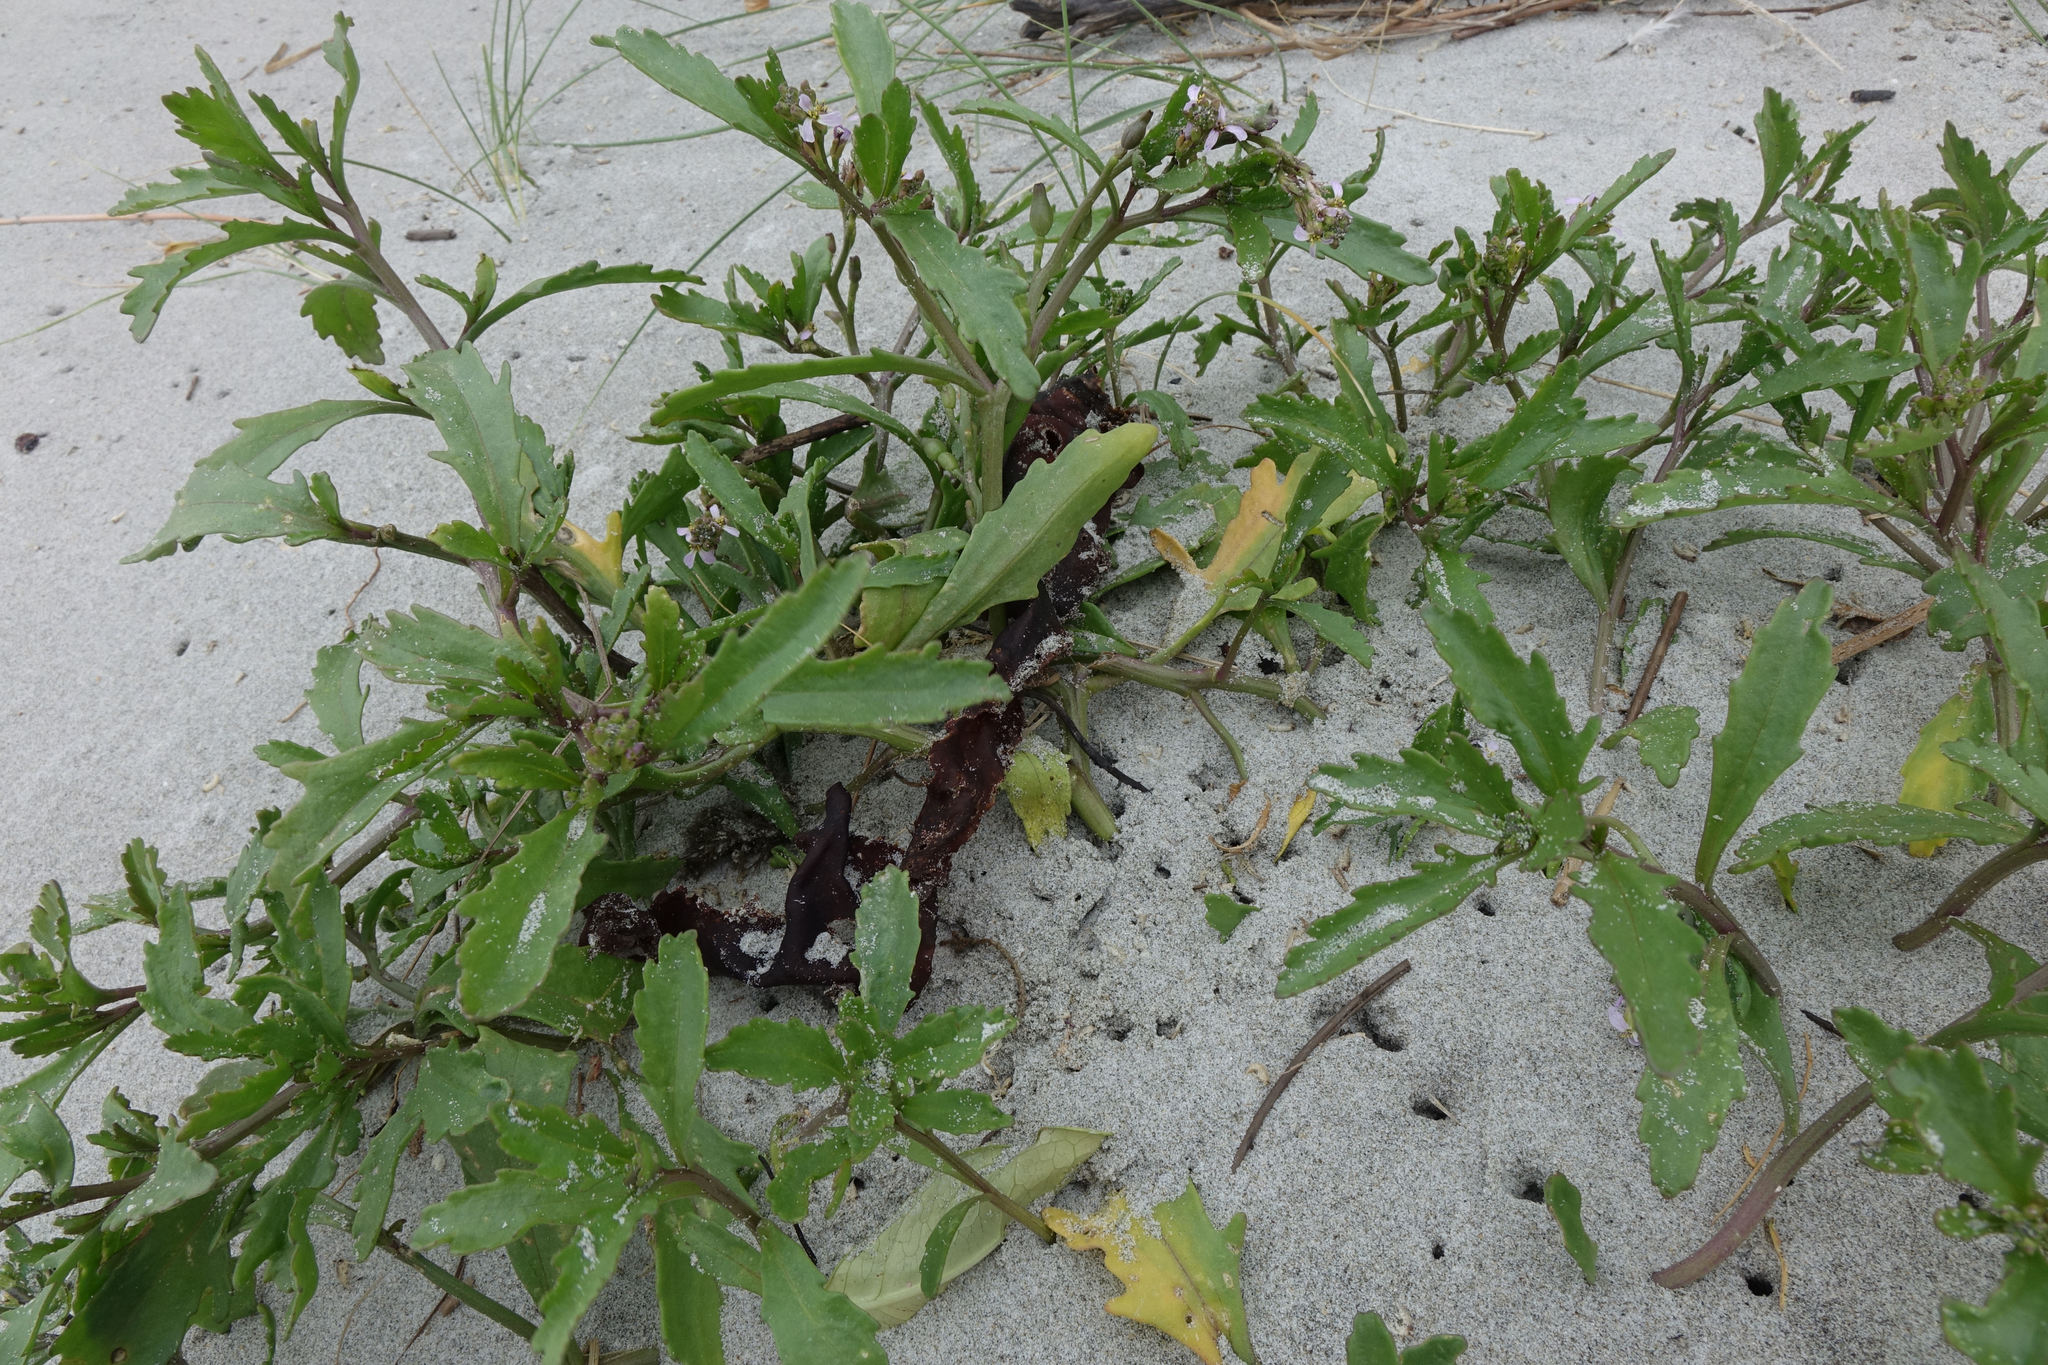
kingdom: Plantae
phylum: Tracheophyta
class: Magnoliopsida
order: Brassicales
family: Brassicaceae
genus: Cakile
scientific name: Cakile edentula
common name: American sea rocket
